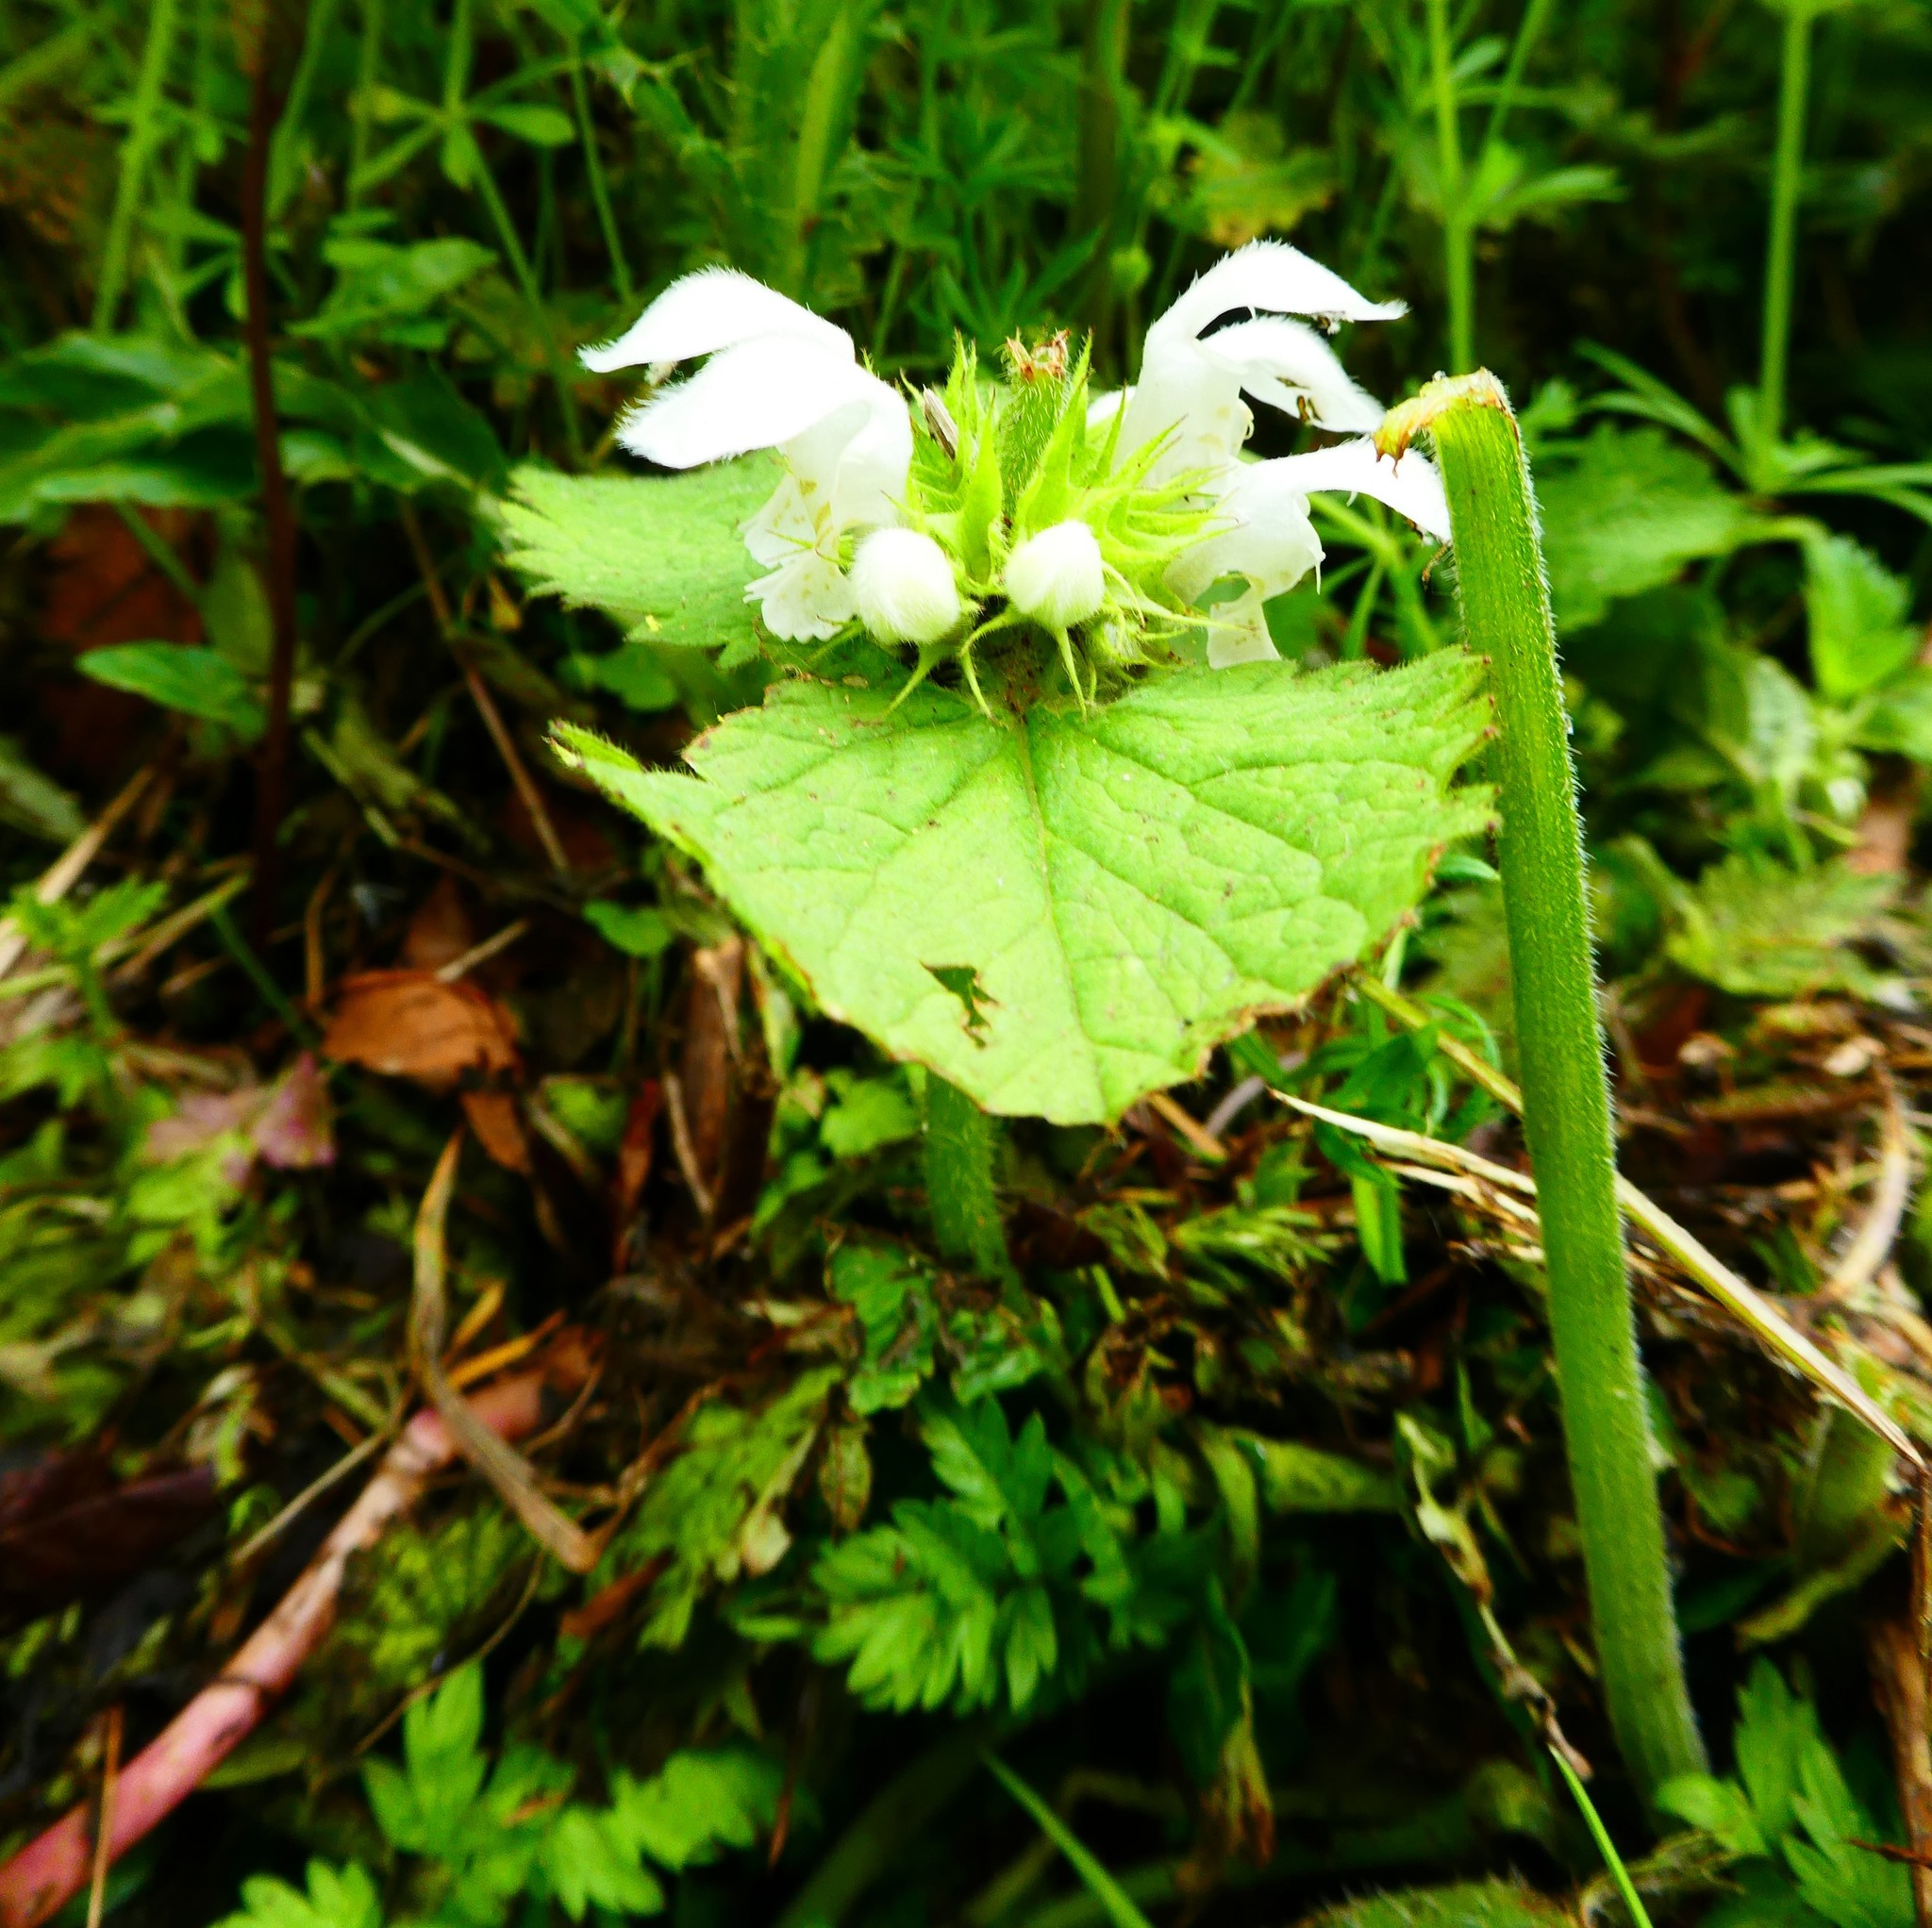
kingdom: Plantae
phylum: Tracheophyta
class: Magnoliopsida
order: Lamiales
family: Lamiaceae
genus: Lamium
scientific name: Lamium album
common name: White dead-nettle
